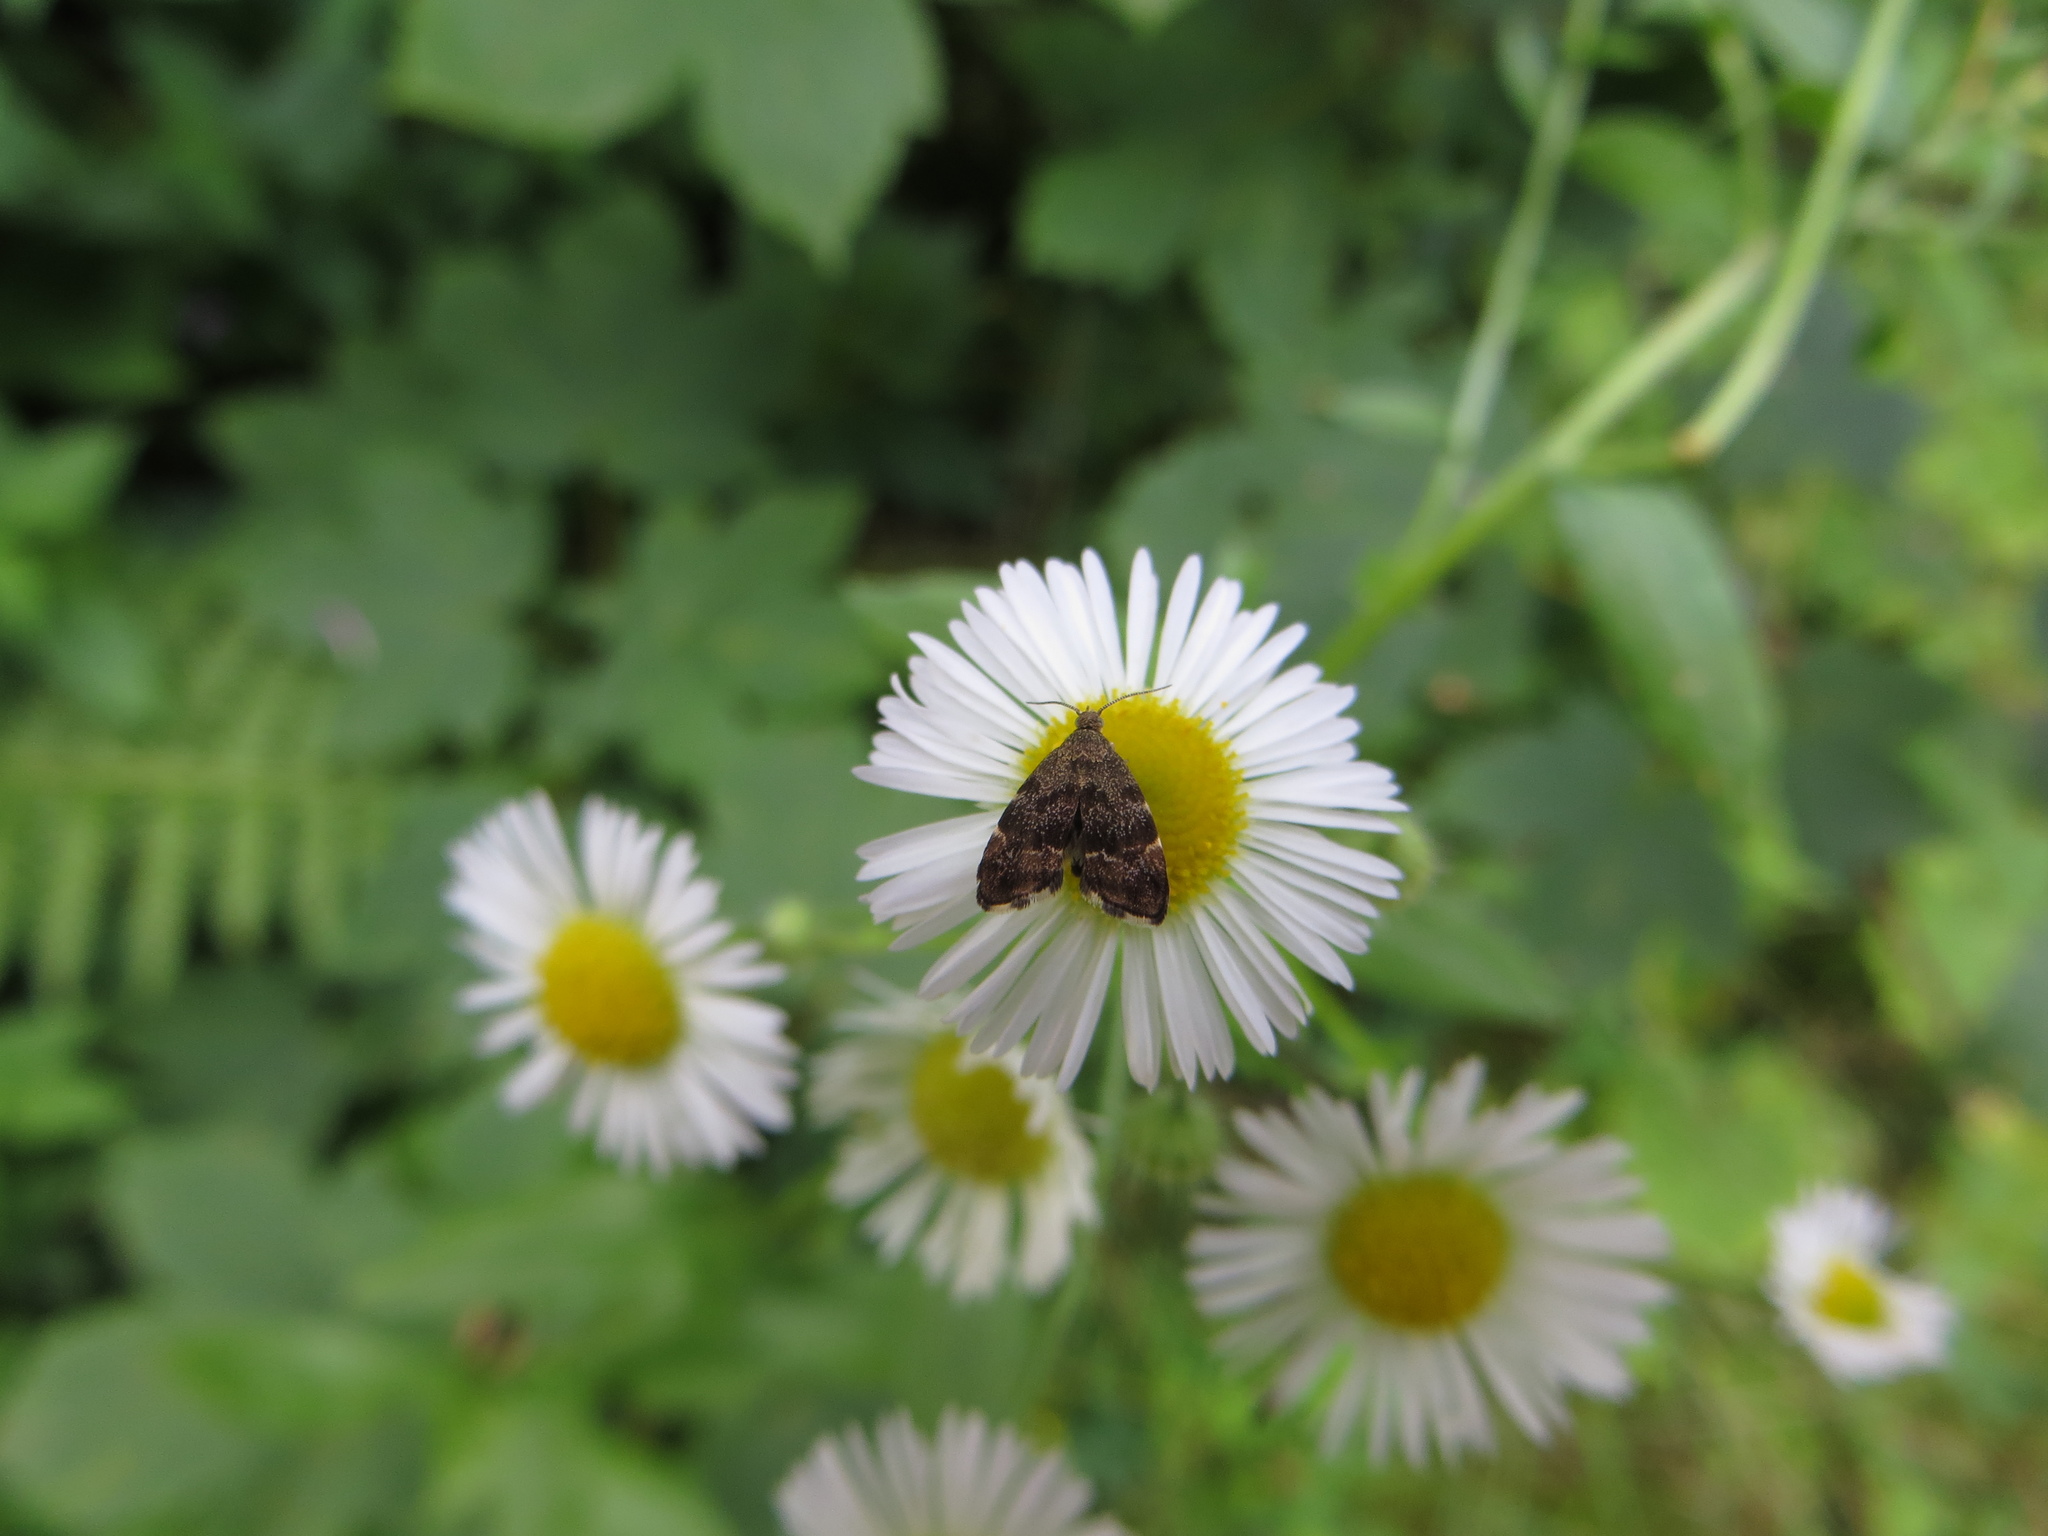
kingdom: Animalia
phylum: Arthropoda
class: Insecta
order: Lepidoptera
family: Choreutidae
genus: Anthophila
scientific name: Anthophila fabriciana
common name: Nettle-tap
